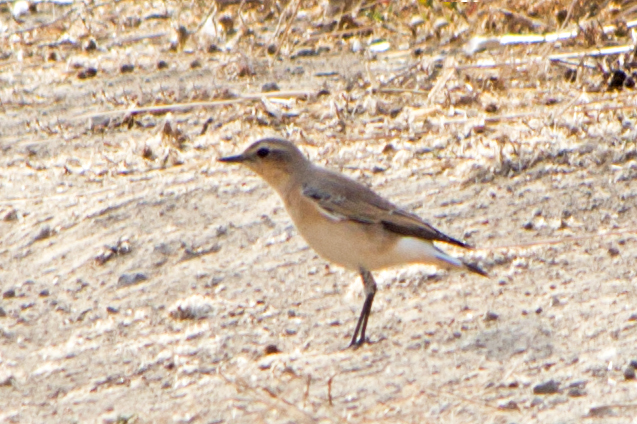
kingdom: Animalia
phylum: Chordata
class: Aves
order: Passeriformes
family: Muscicapidae
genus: Oenanthe
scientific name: Oenanthe oenanthe
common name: Northern wheatear
